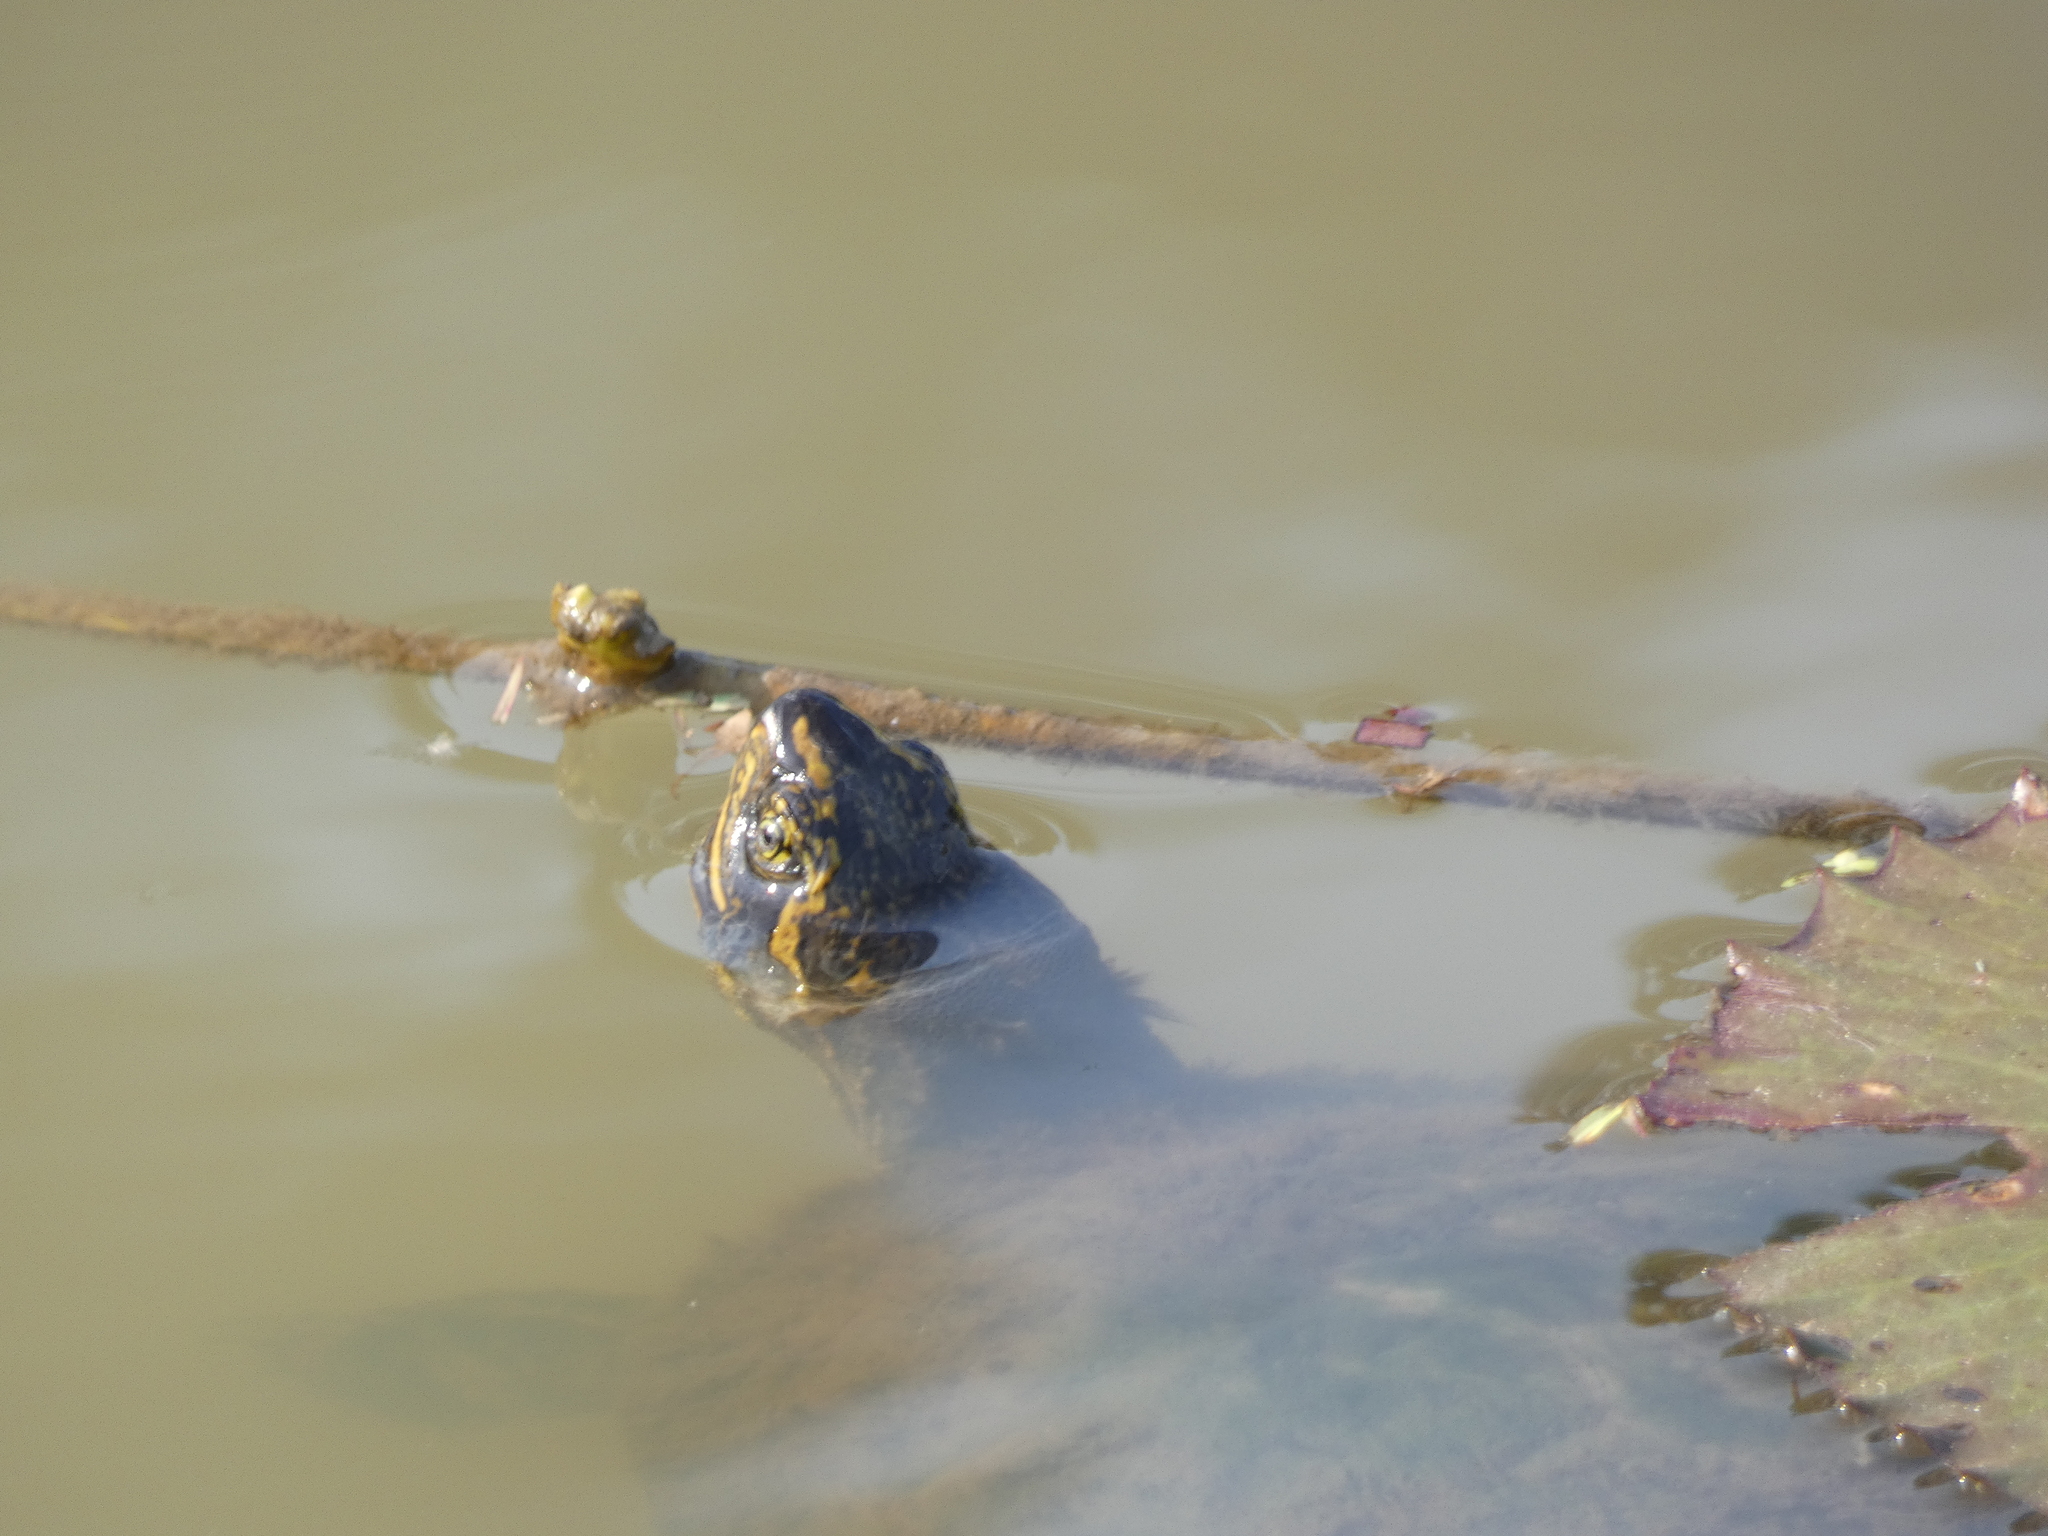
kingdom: Animalia
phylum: Chordata
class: Testudines
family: Geoemydidae
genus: Heosemys
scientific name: Heosemys annandalii
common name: Yellow-headed temple turtle
